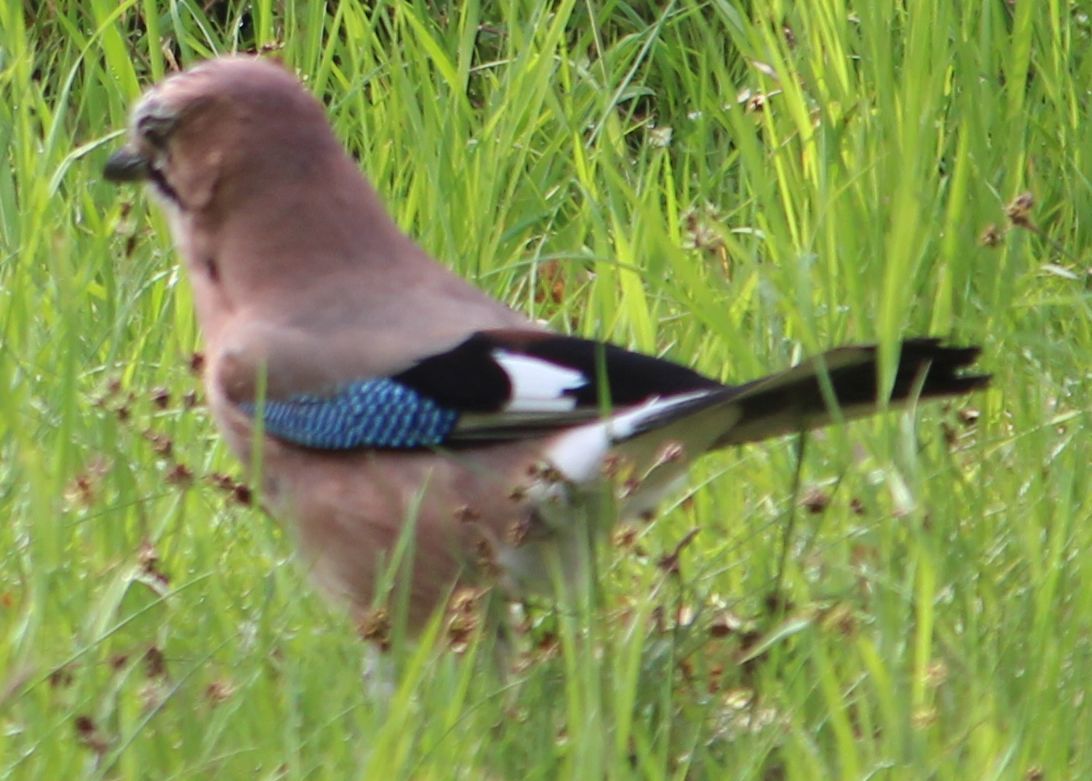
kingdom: Animalia
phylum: Chordata
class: Aves
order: Passeriformes
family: Corvidae
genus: Garrulus
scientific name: Garrulus glandarius
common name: Eurasian jay
